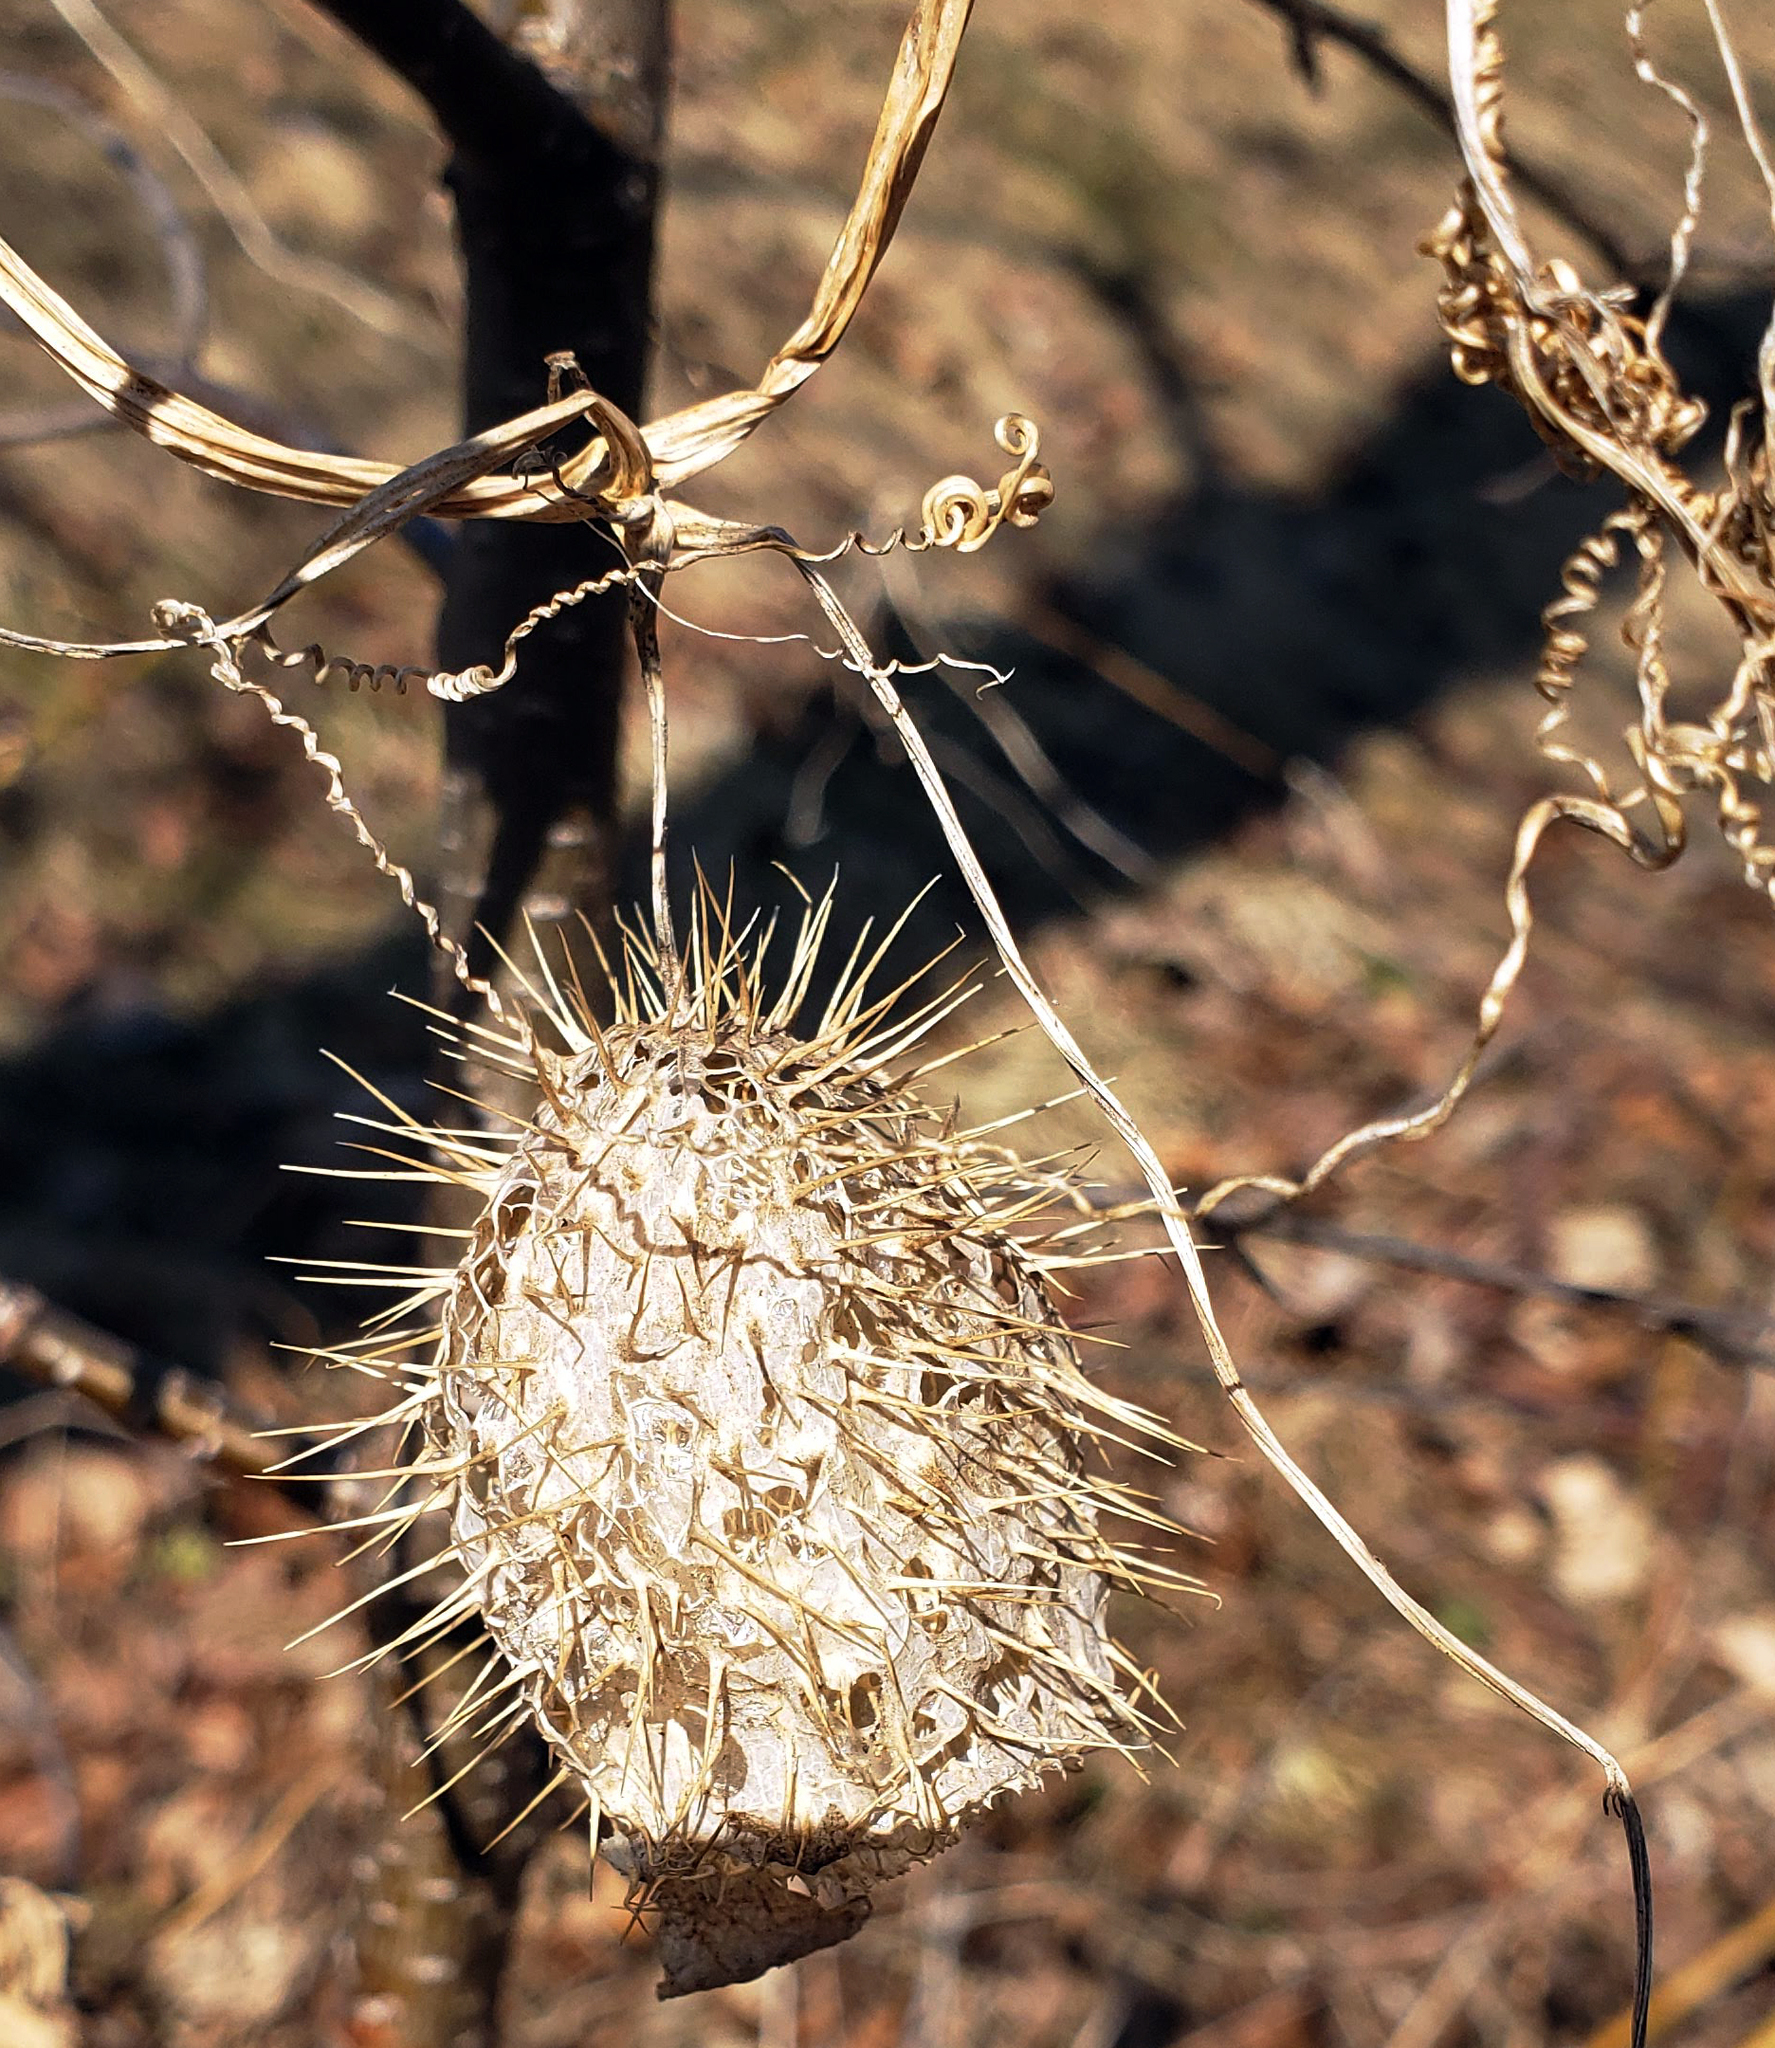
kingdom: Plantae
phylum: Tracheophyta
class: Magnoliopsida
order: Cucurbitales
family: Cucurbitaceae
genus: Echinocystis
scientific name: Echinocystis lobata
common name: Wild cucumber
